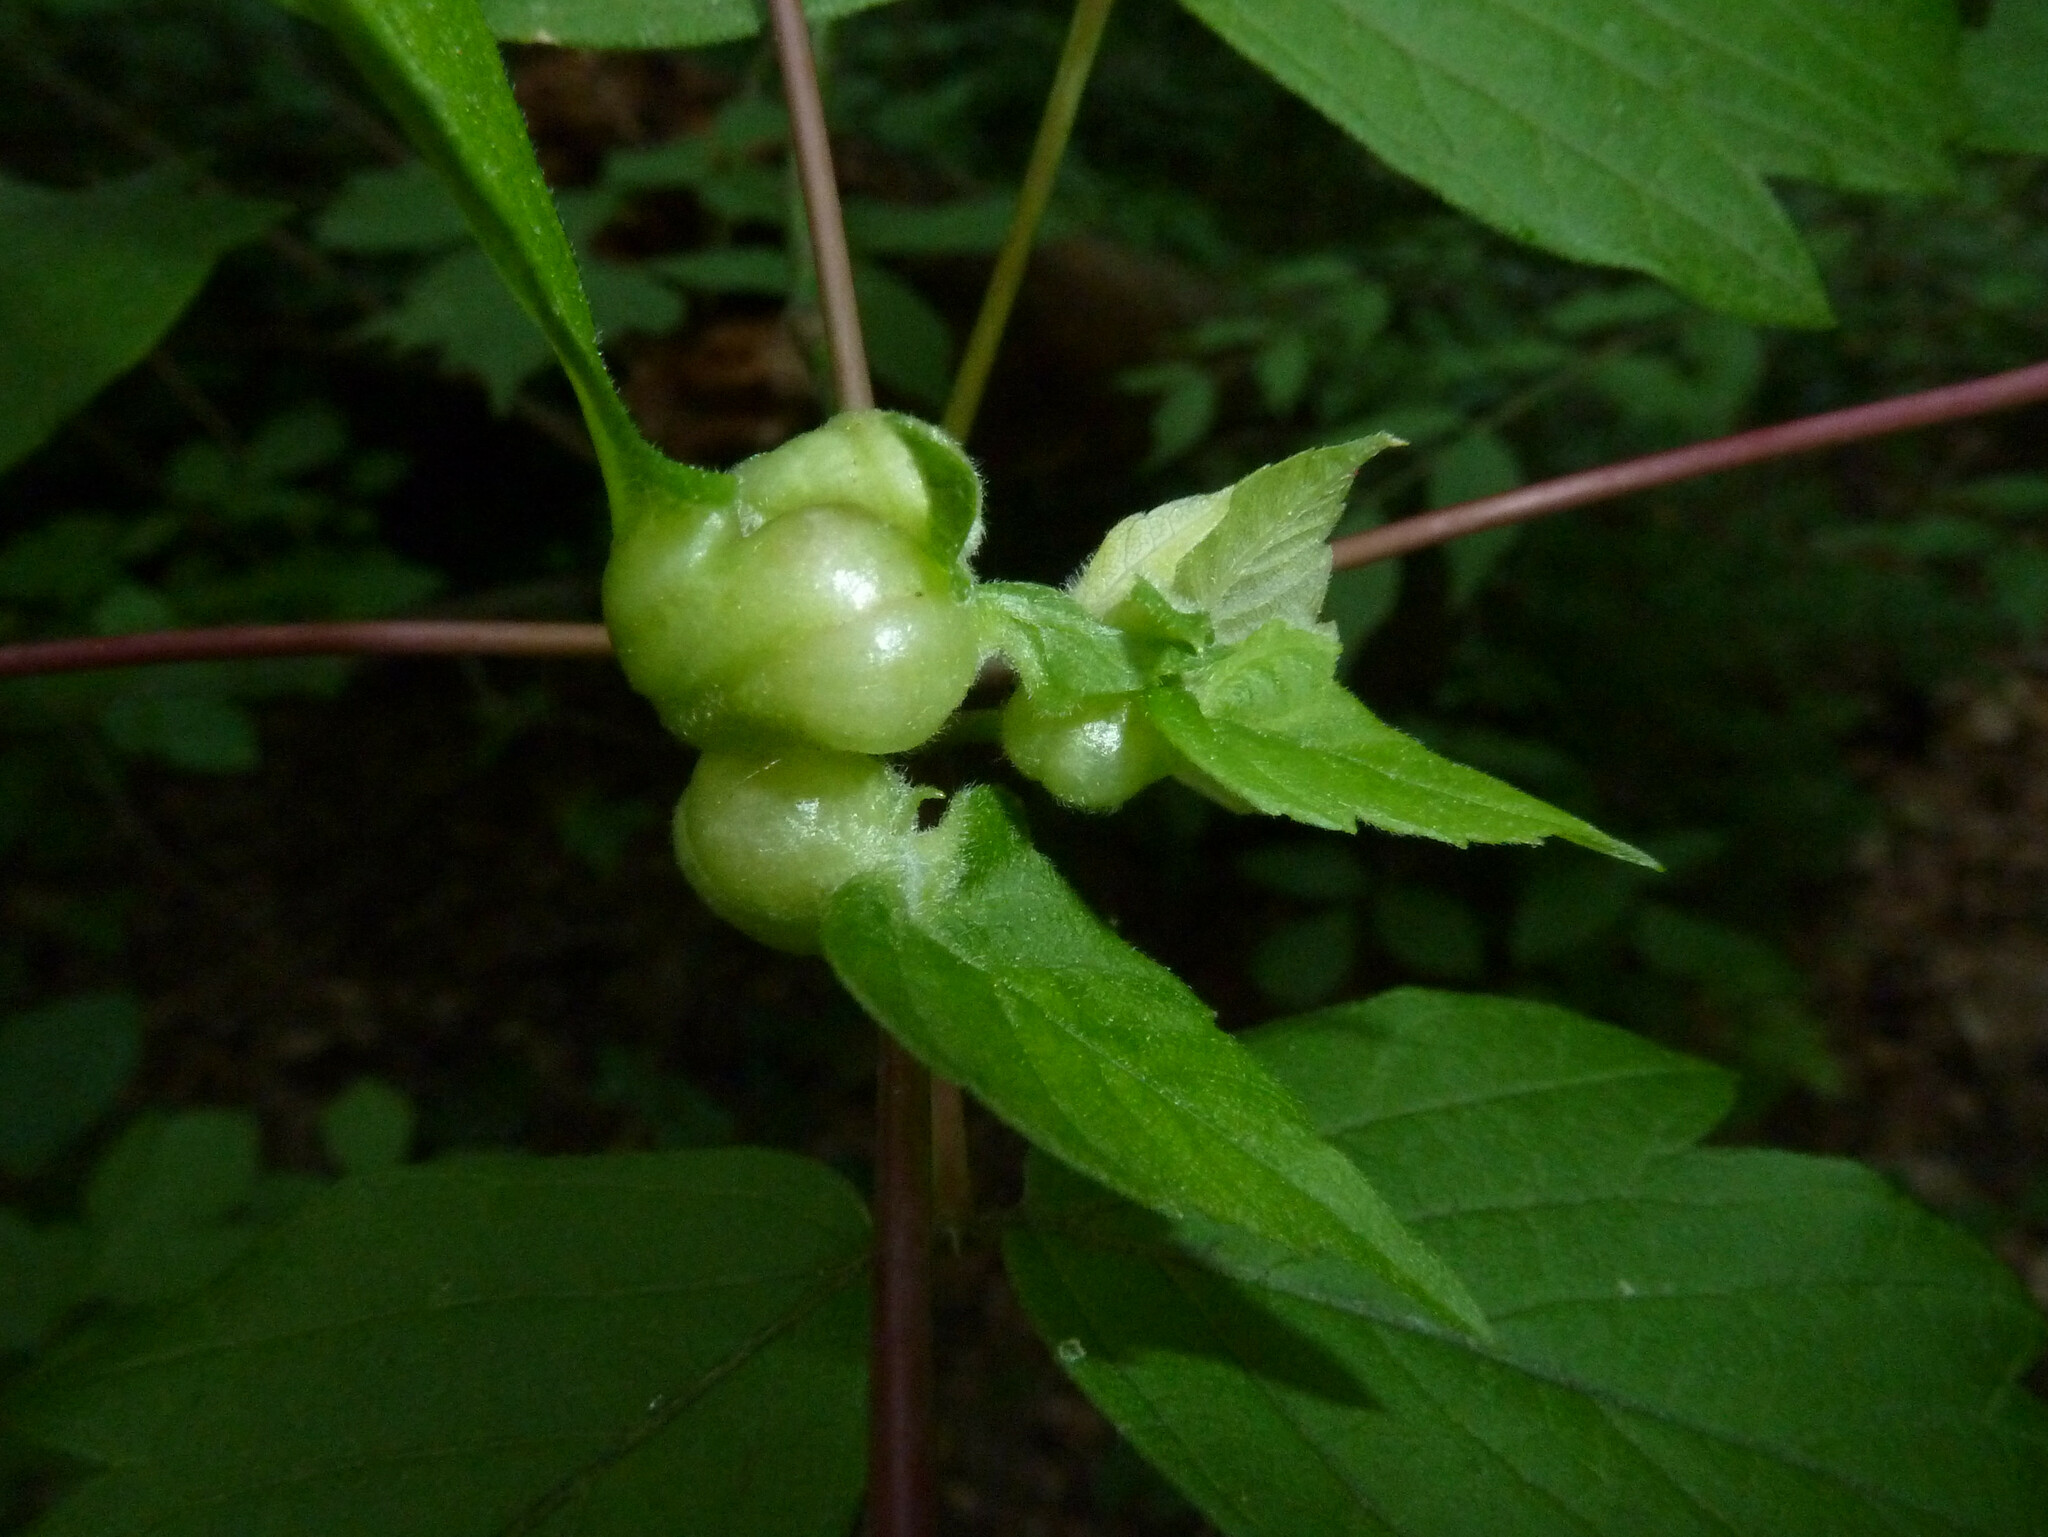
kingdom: Animalia
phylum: Arthropoda
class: Insecta
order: Diptera
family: Cecidomyiidae
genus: Contarinia
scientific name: Contarinia negundinis
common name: Boxelder budgall midge
